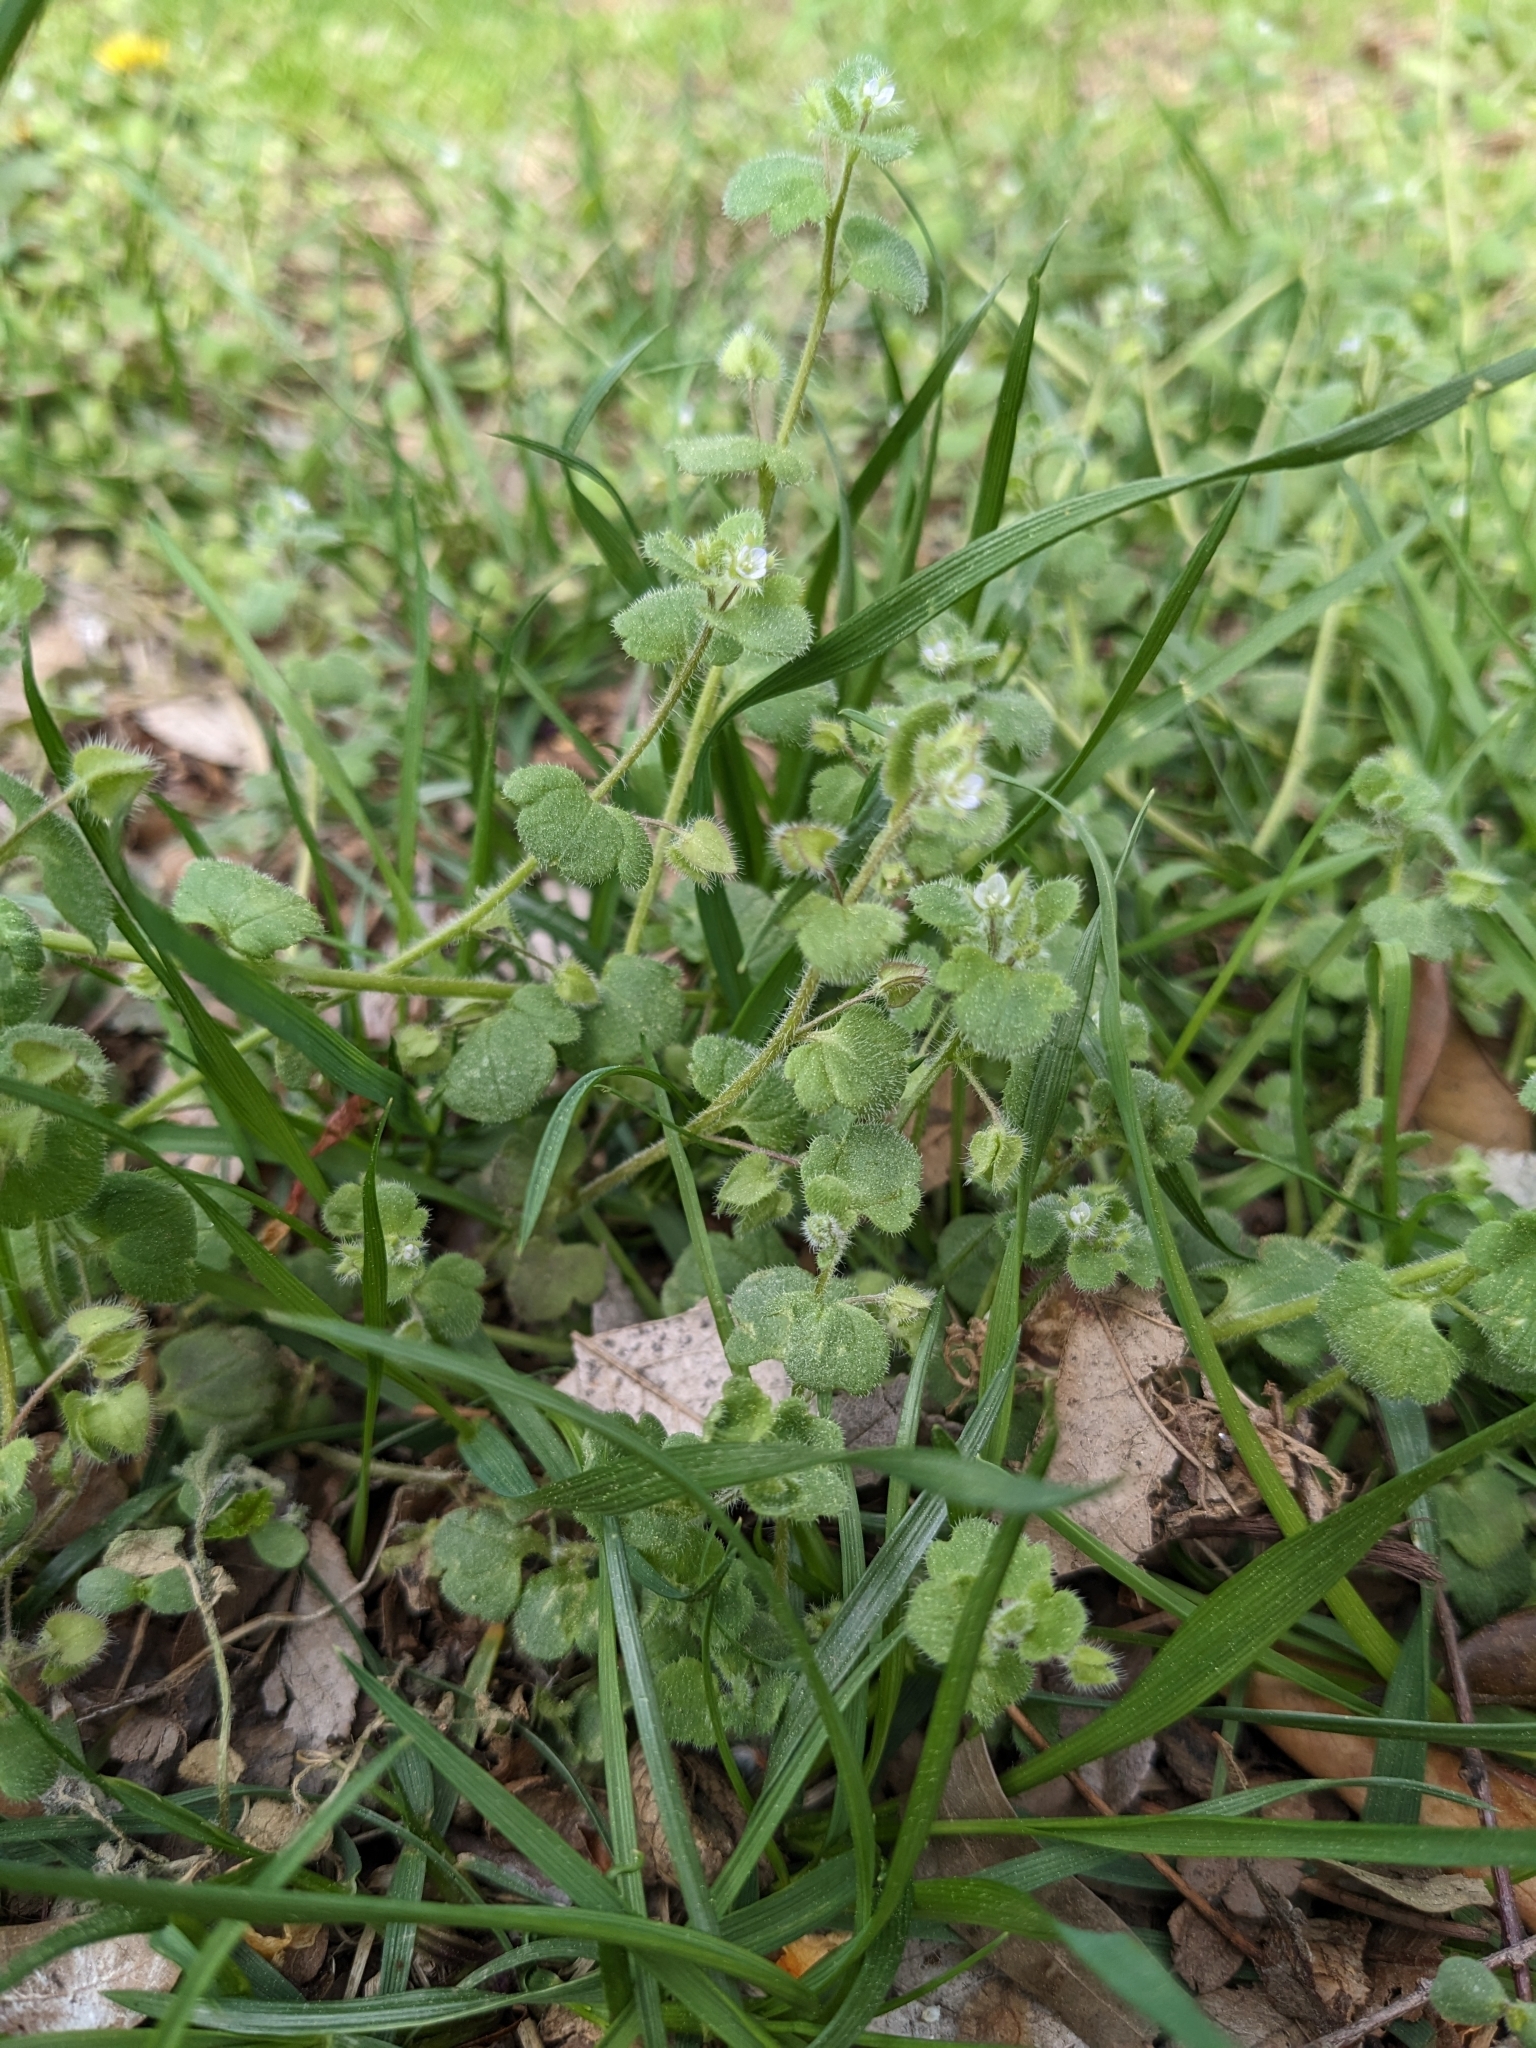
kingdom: Plantae
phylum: Tracheophyta
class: Magnoliopsida
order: Lamiales
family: Plantaginaceae
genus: Veronica
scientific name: Veronica sublobata
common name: False ivy-leaved speedwell
